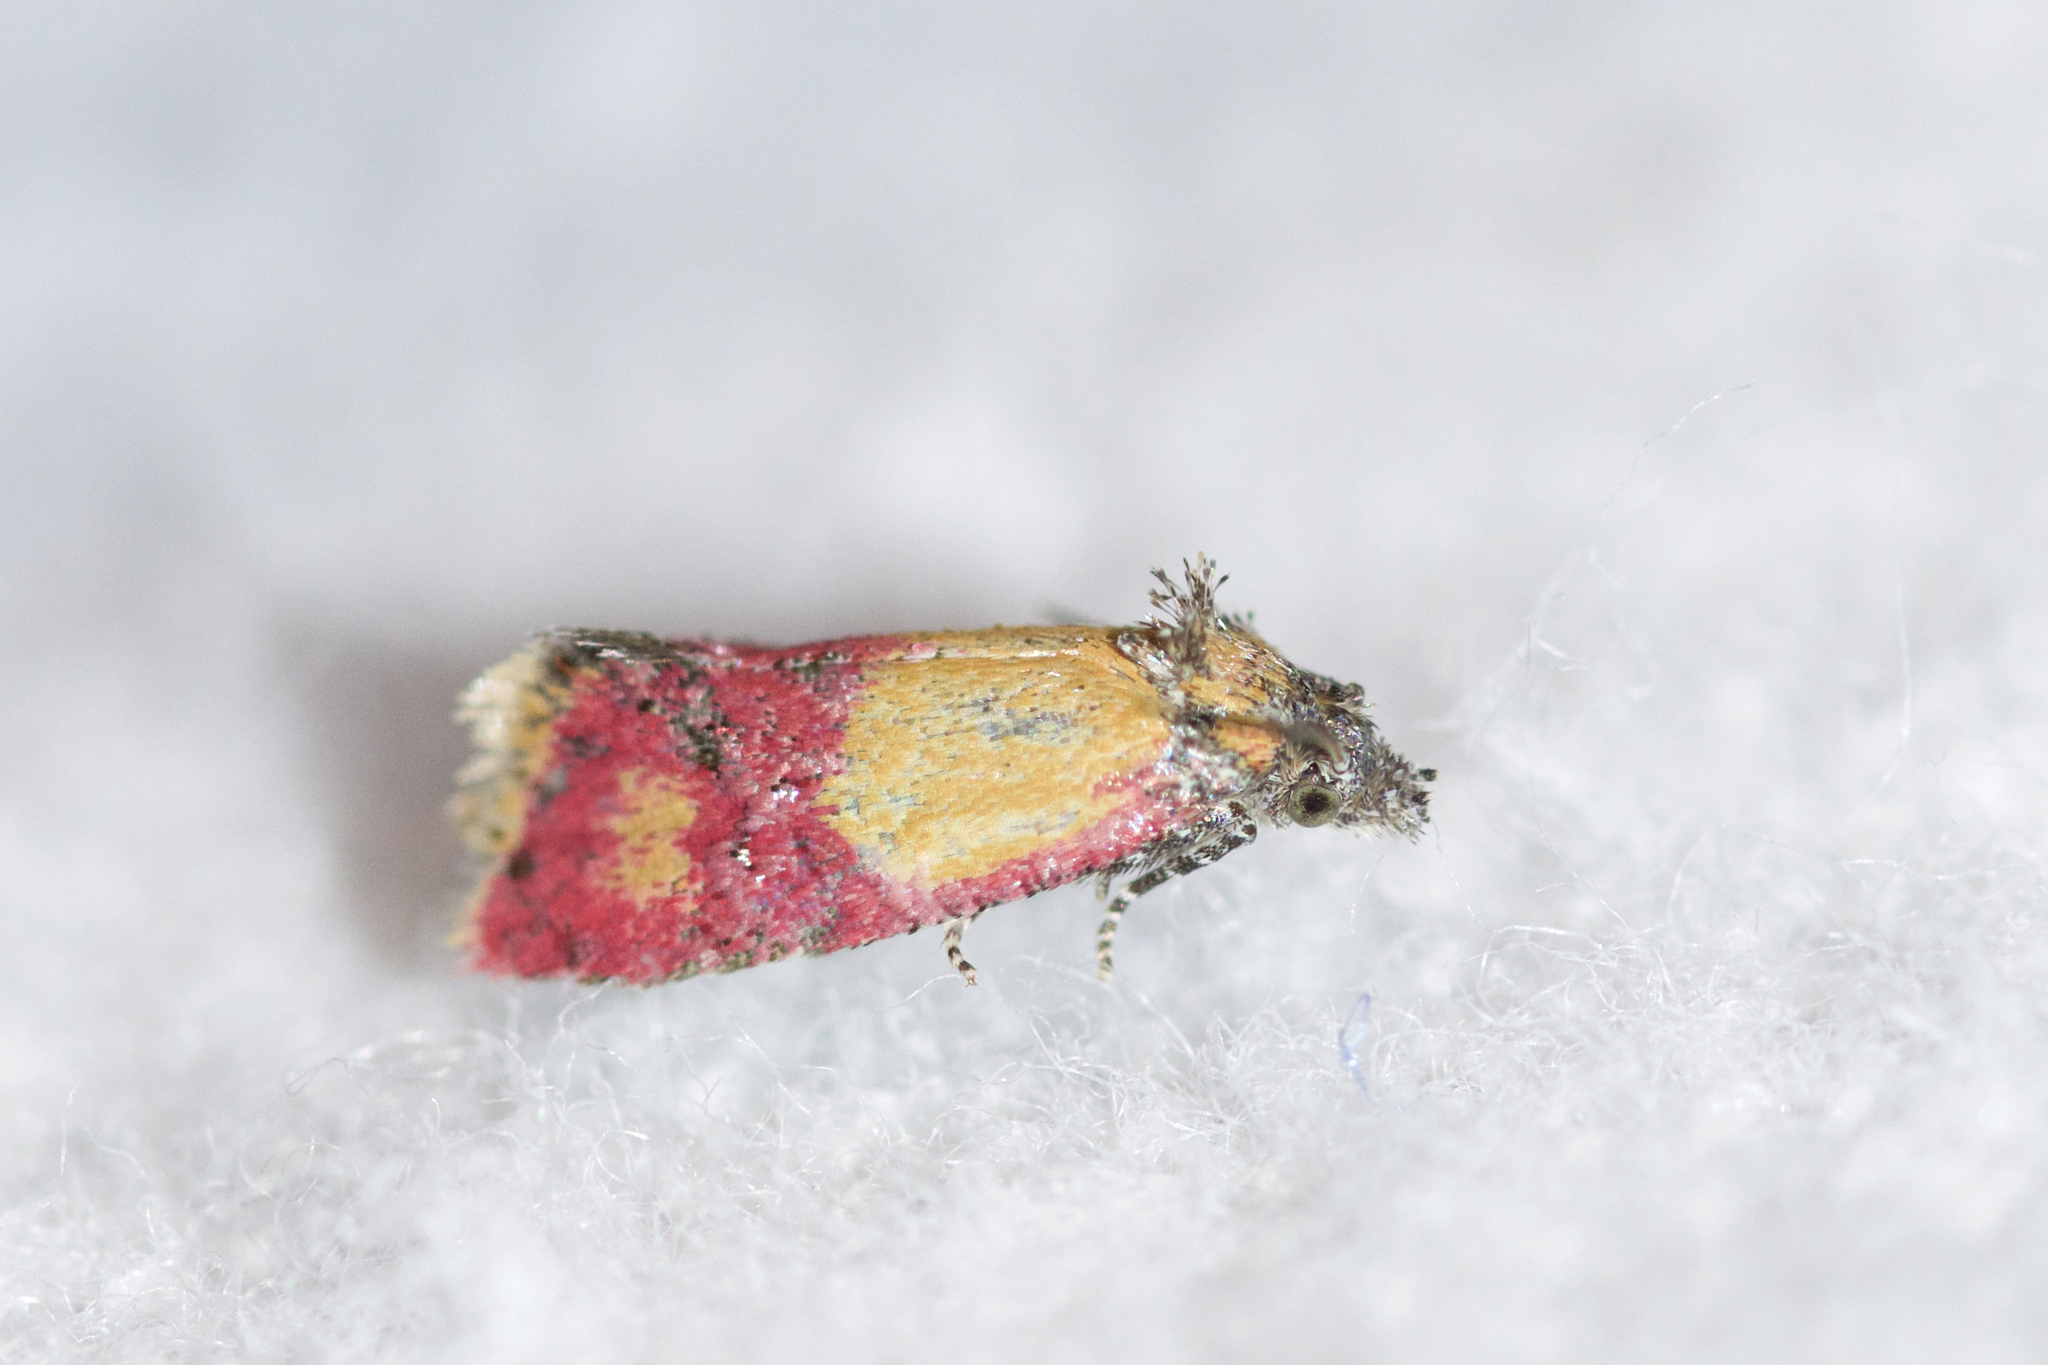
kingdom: Animalia
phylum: Arthropoda
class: Insecta
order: Lepidoptera
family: Tortricidae
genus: Conchylis
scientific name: Conchylis oenotherana
